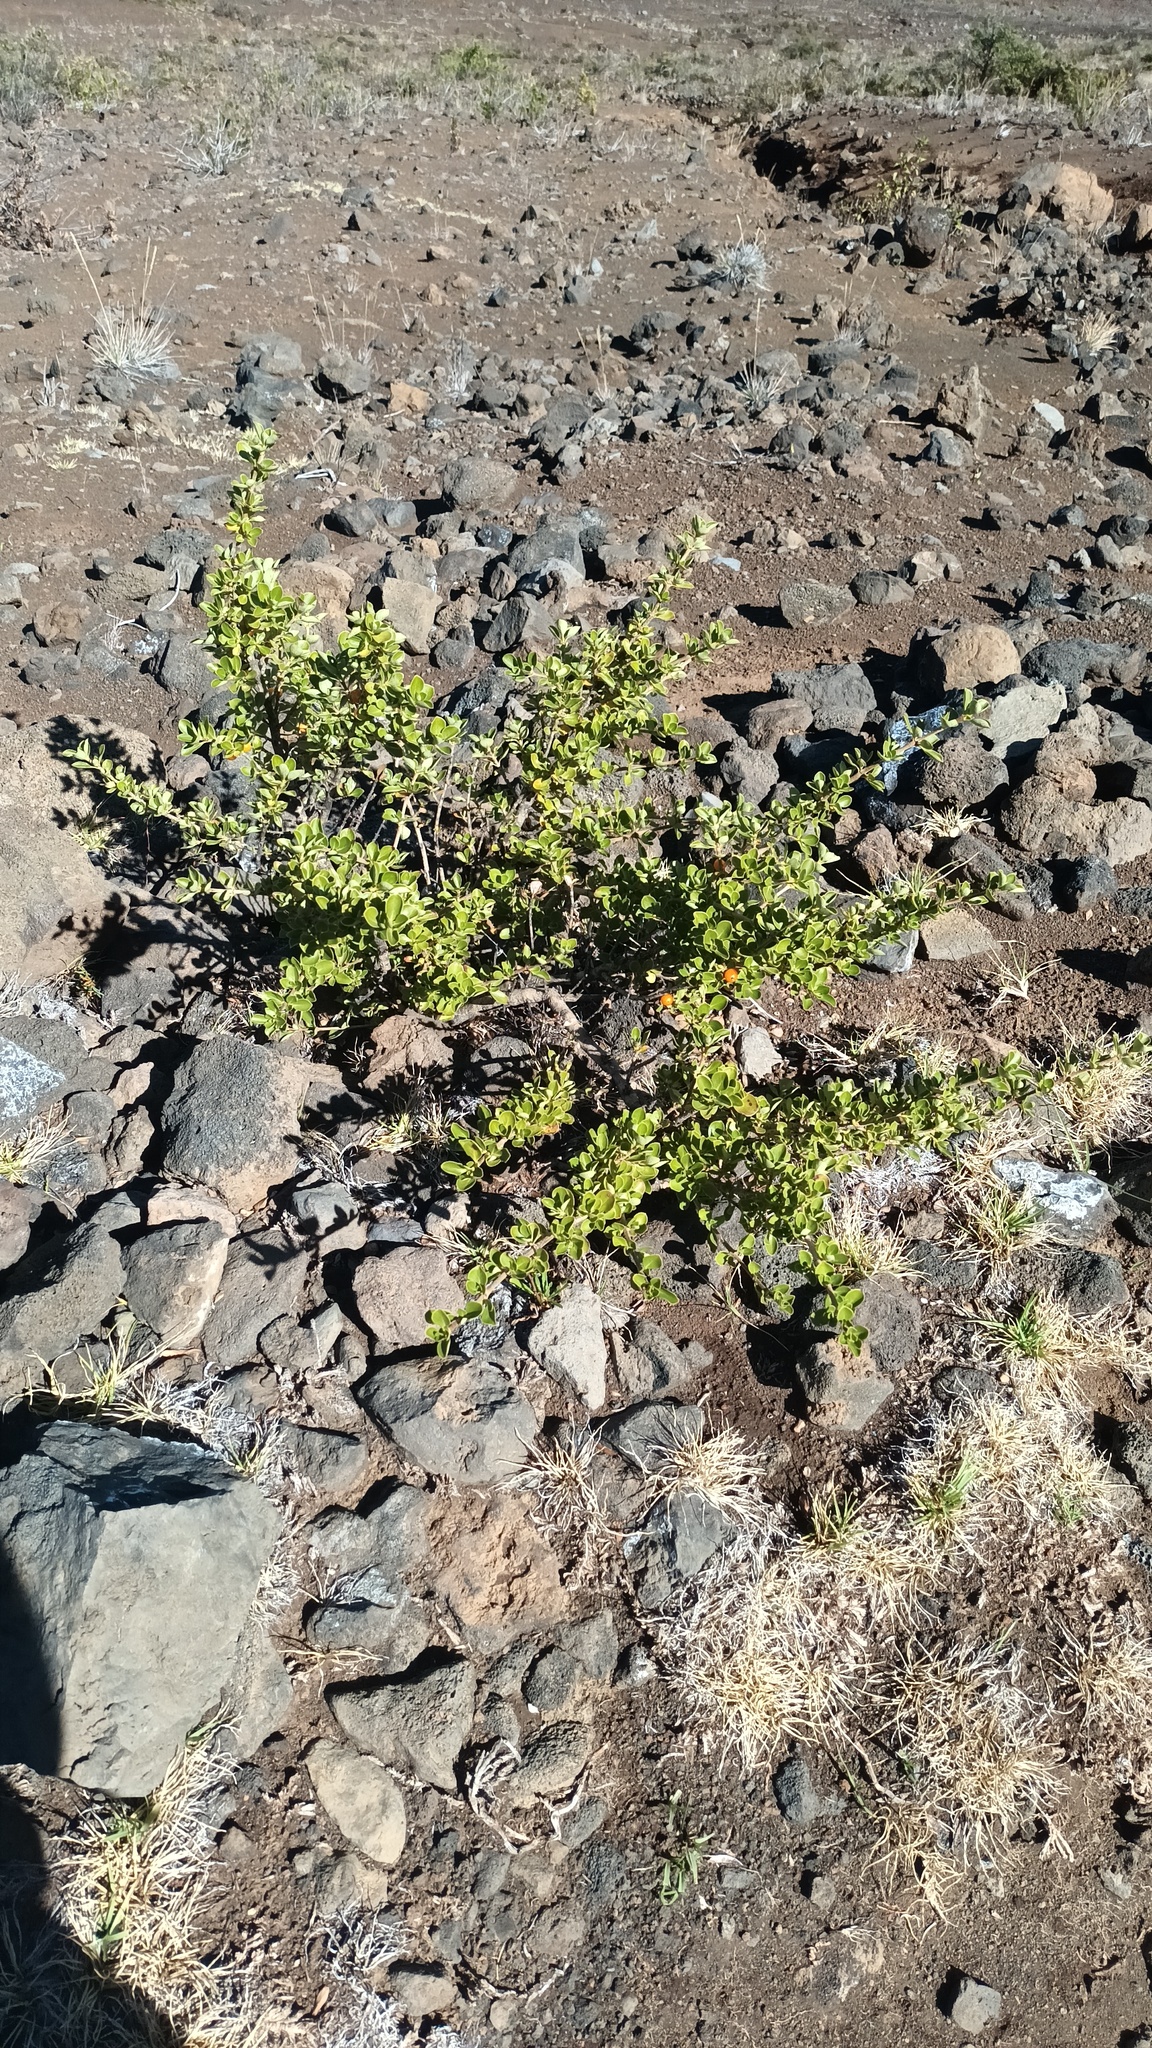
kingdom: Plantae
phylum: Tracheophyta
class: Magnoliopsida
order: Gentianales
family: Rubiaceae
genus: Coprosma
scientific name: Coprosma montana
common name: Alpine mirror plant
